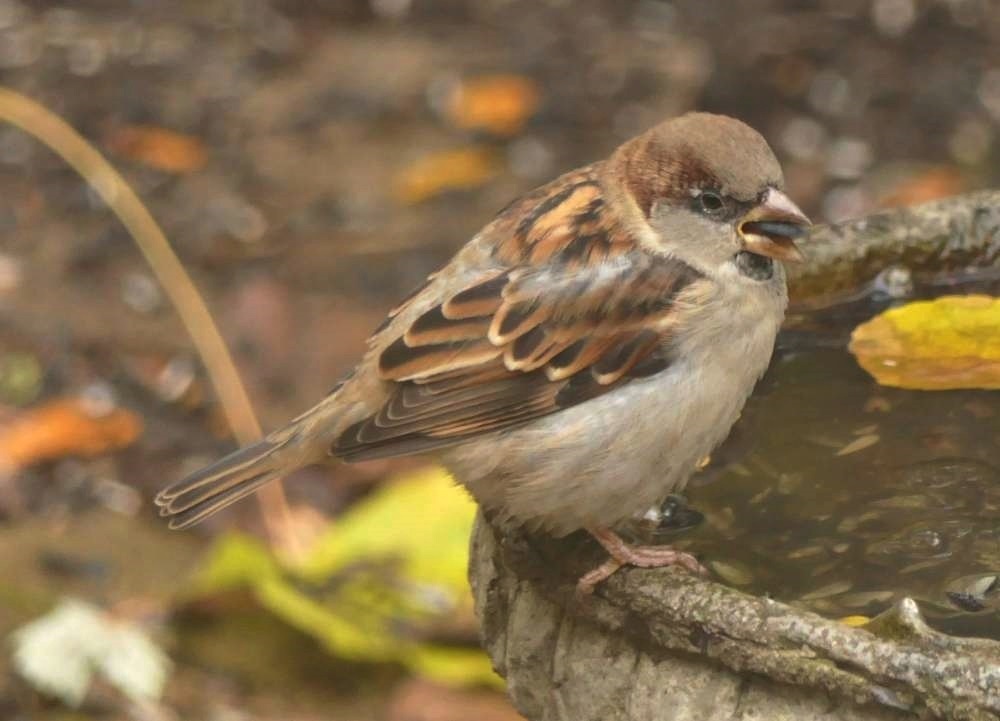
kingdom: Animalia
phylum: Chordata
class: Aves
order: Passeriformes
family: Passeridae
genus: Passer
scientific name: Passer domesticus
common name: House sparrow
